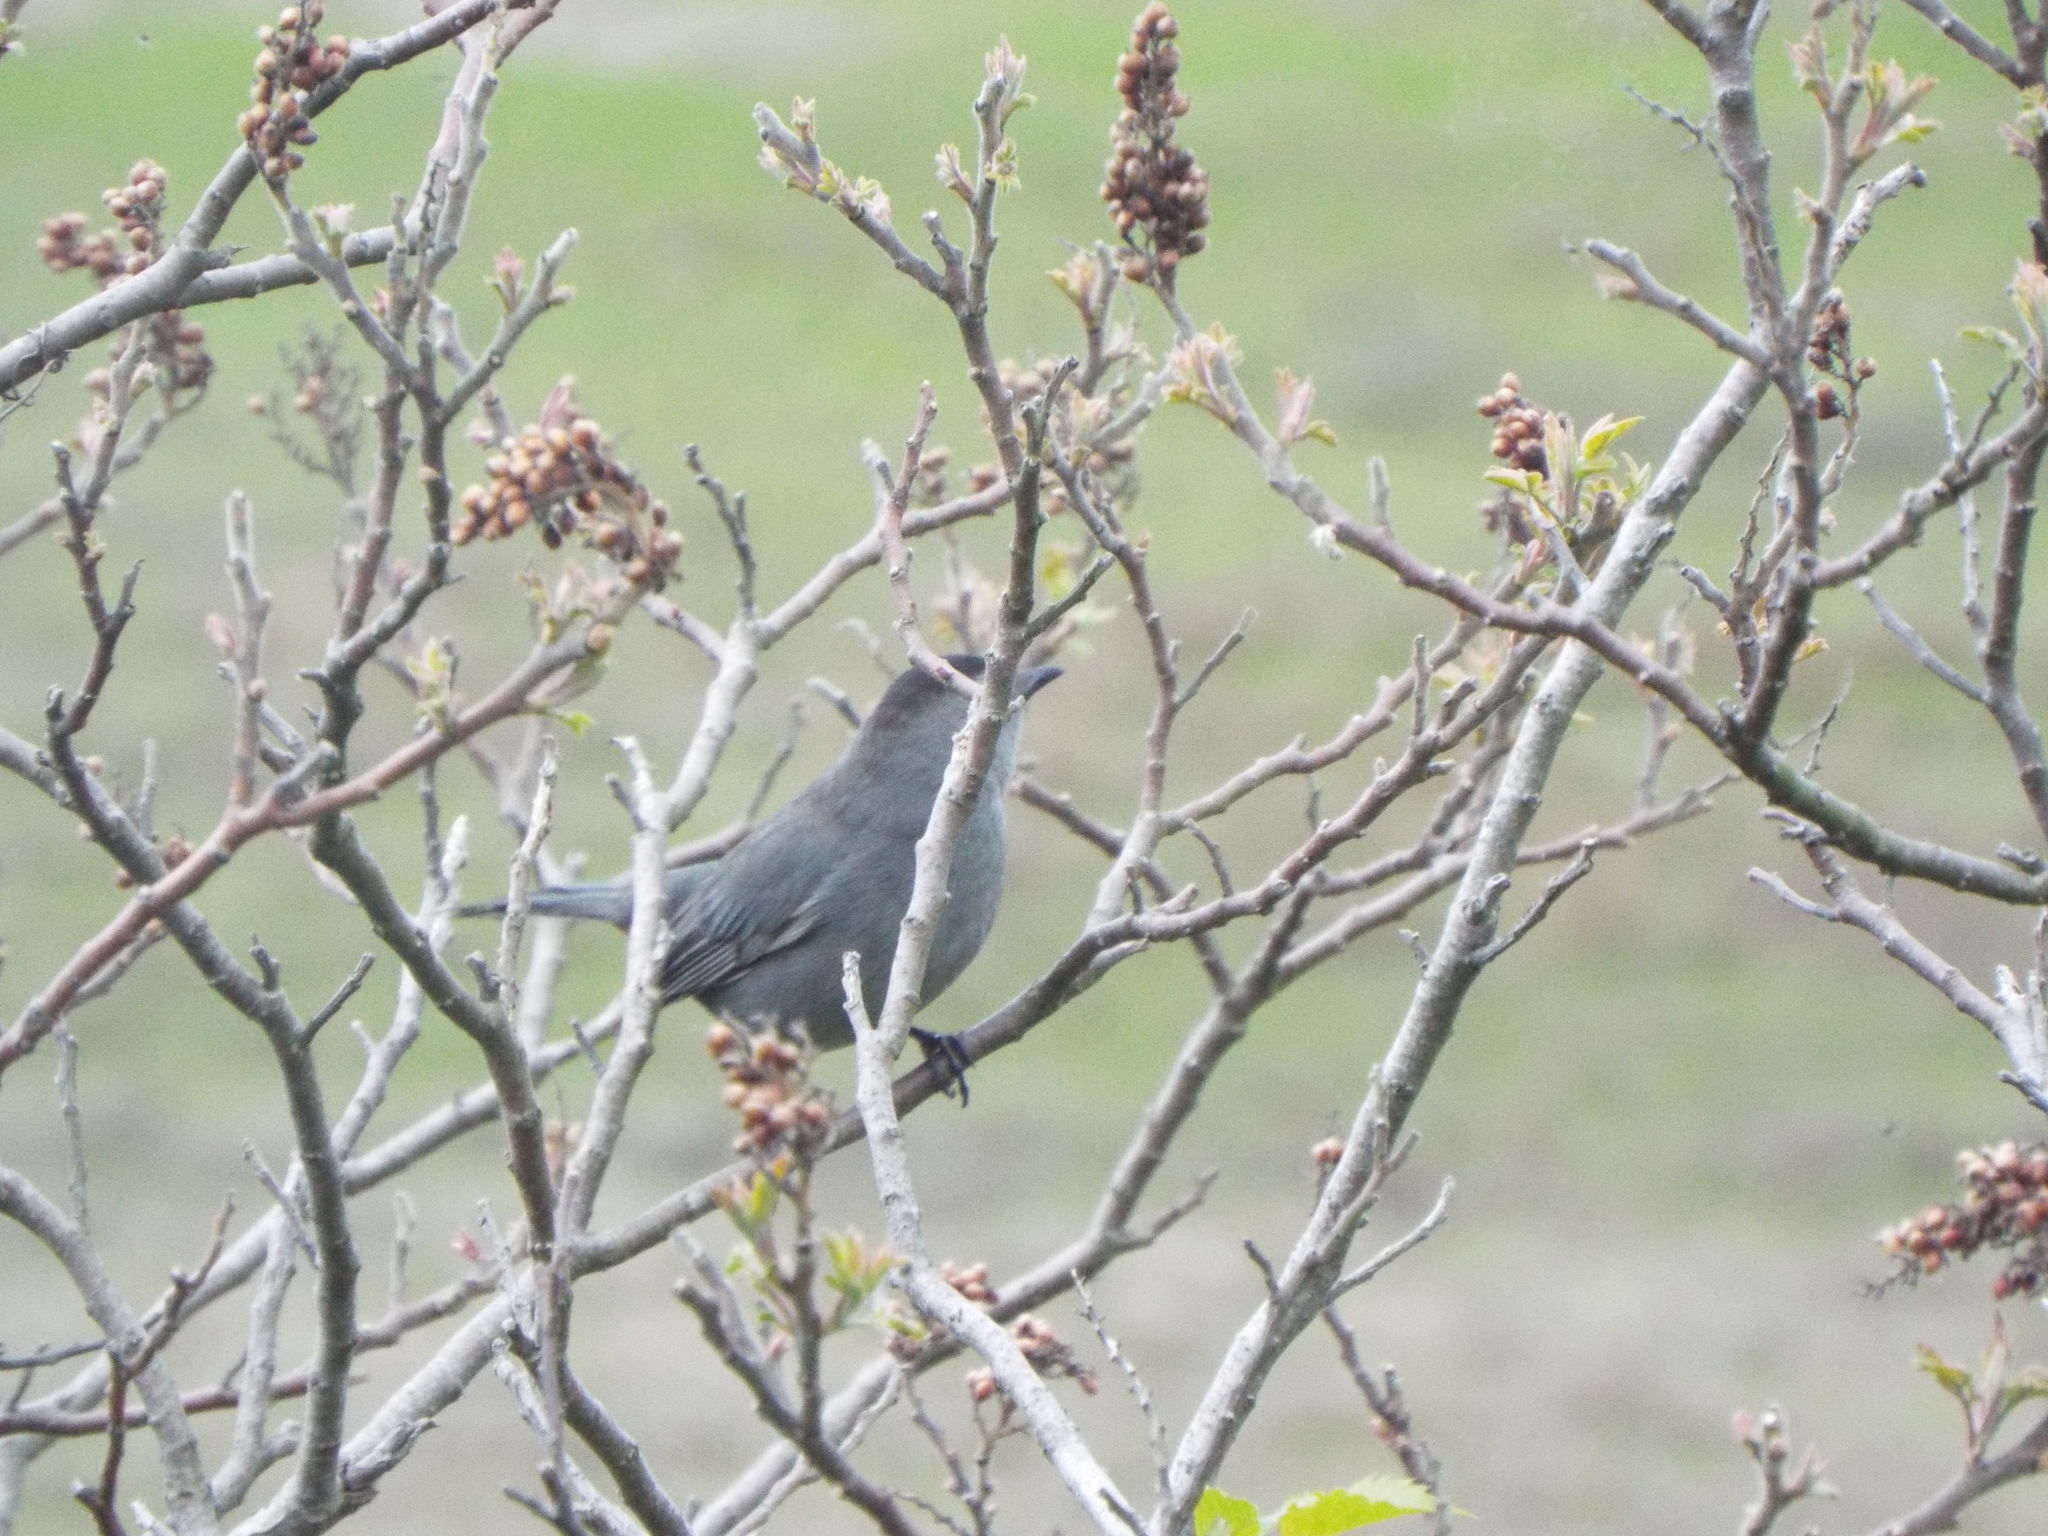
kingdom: Animalia
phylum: Chordata
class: Aves
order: Passeriformes
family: Mimidae
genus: Dumetella
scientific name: Dumetella carolinensis
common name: Gray catbird
